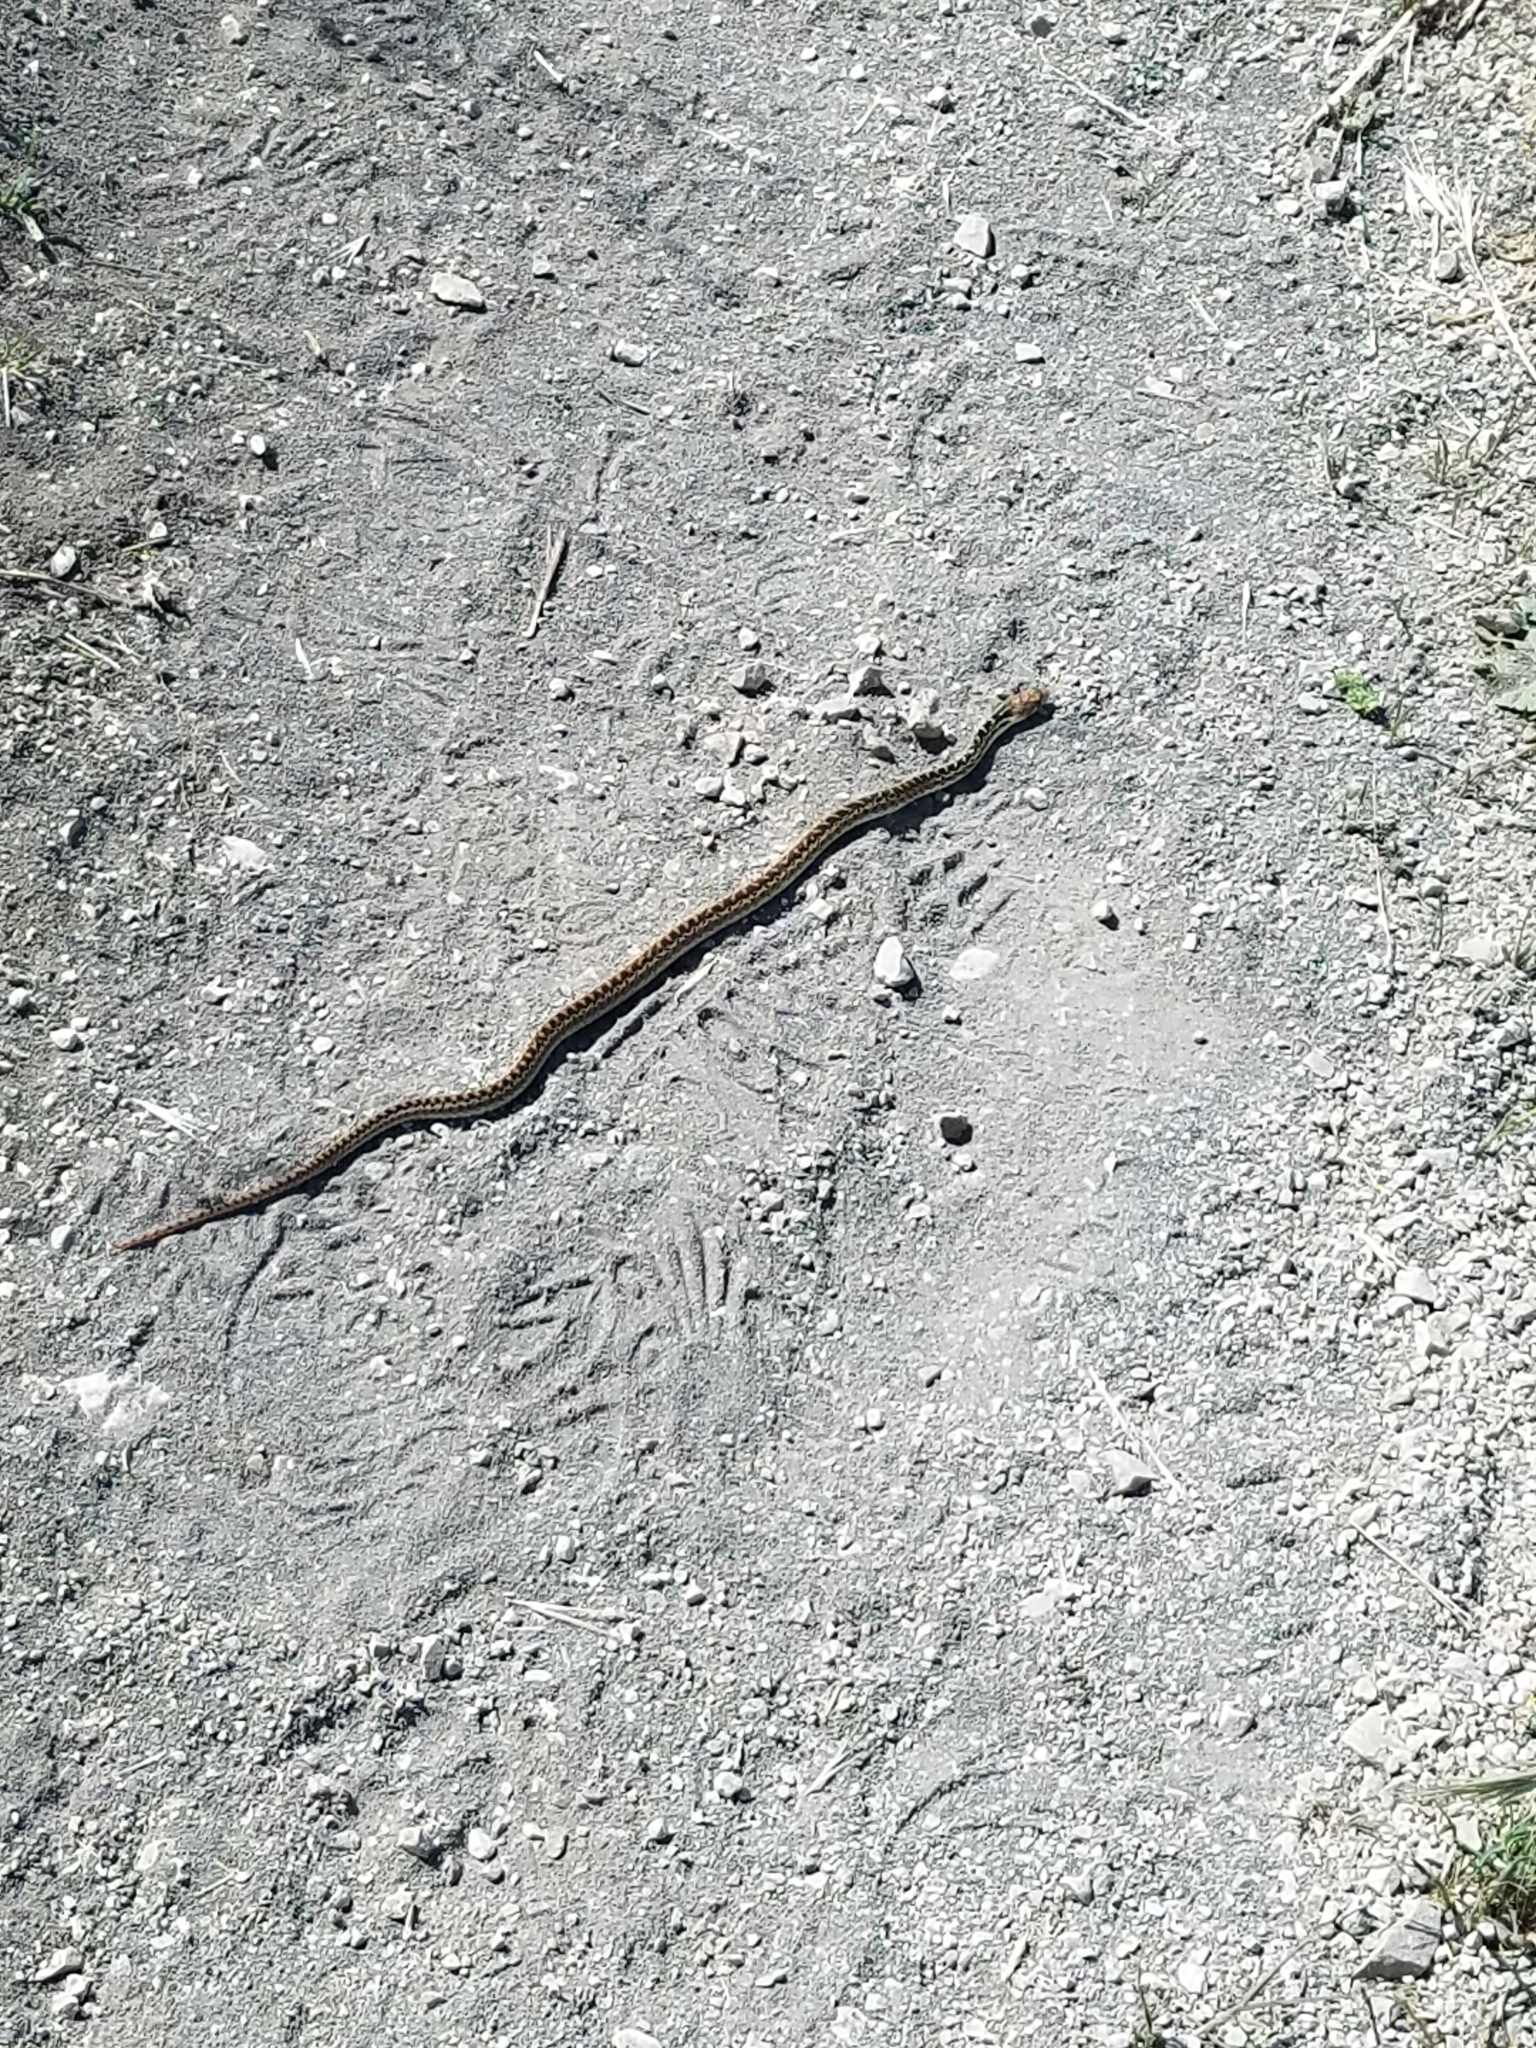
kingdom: Animalia
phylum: Chordata
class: Squamata
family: Colubridae
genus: Pituophis
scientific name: Pituophis catenifer
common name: Gopher snake
